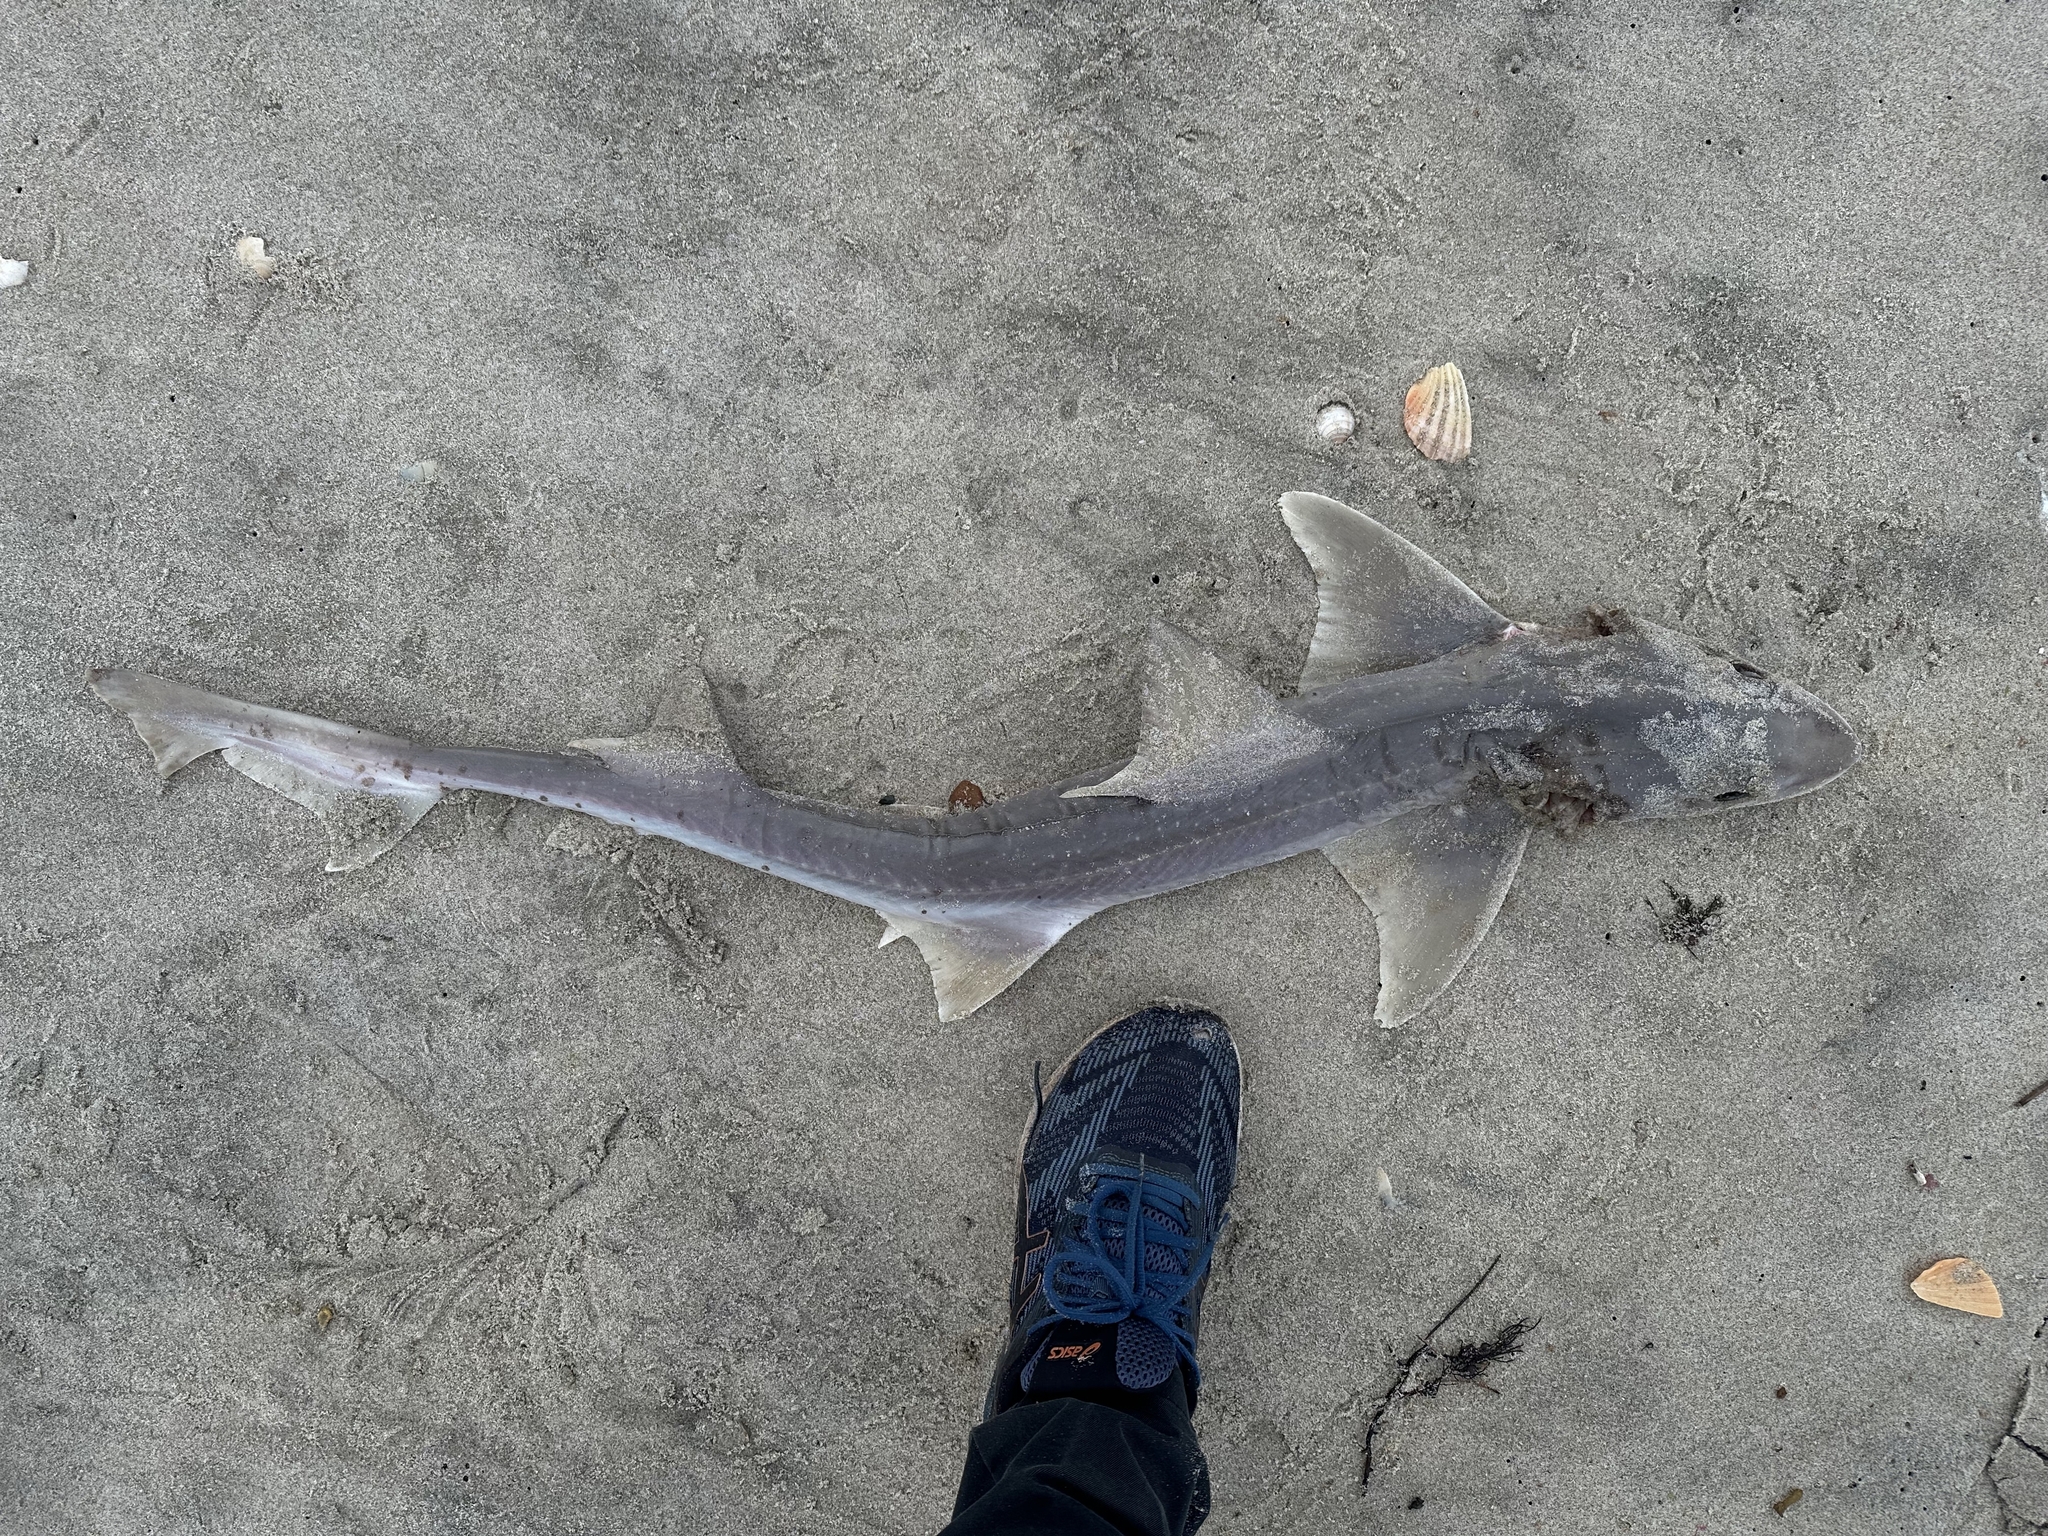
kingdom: Animalia
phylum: Chordata
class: Elasmobranchii
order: Carcharhiniformes
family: Triakidae
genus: Mustelus
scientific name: Mustelus lenticulatus
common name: Gummy shark
